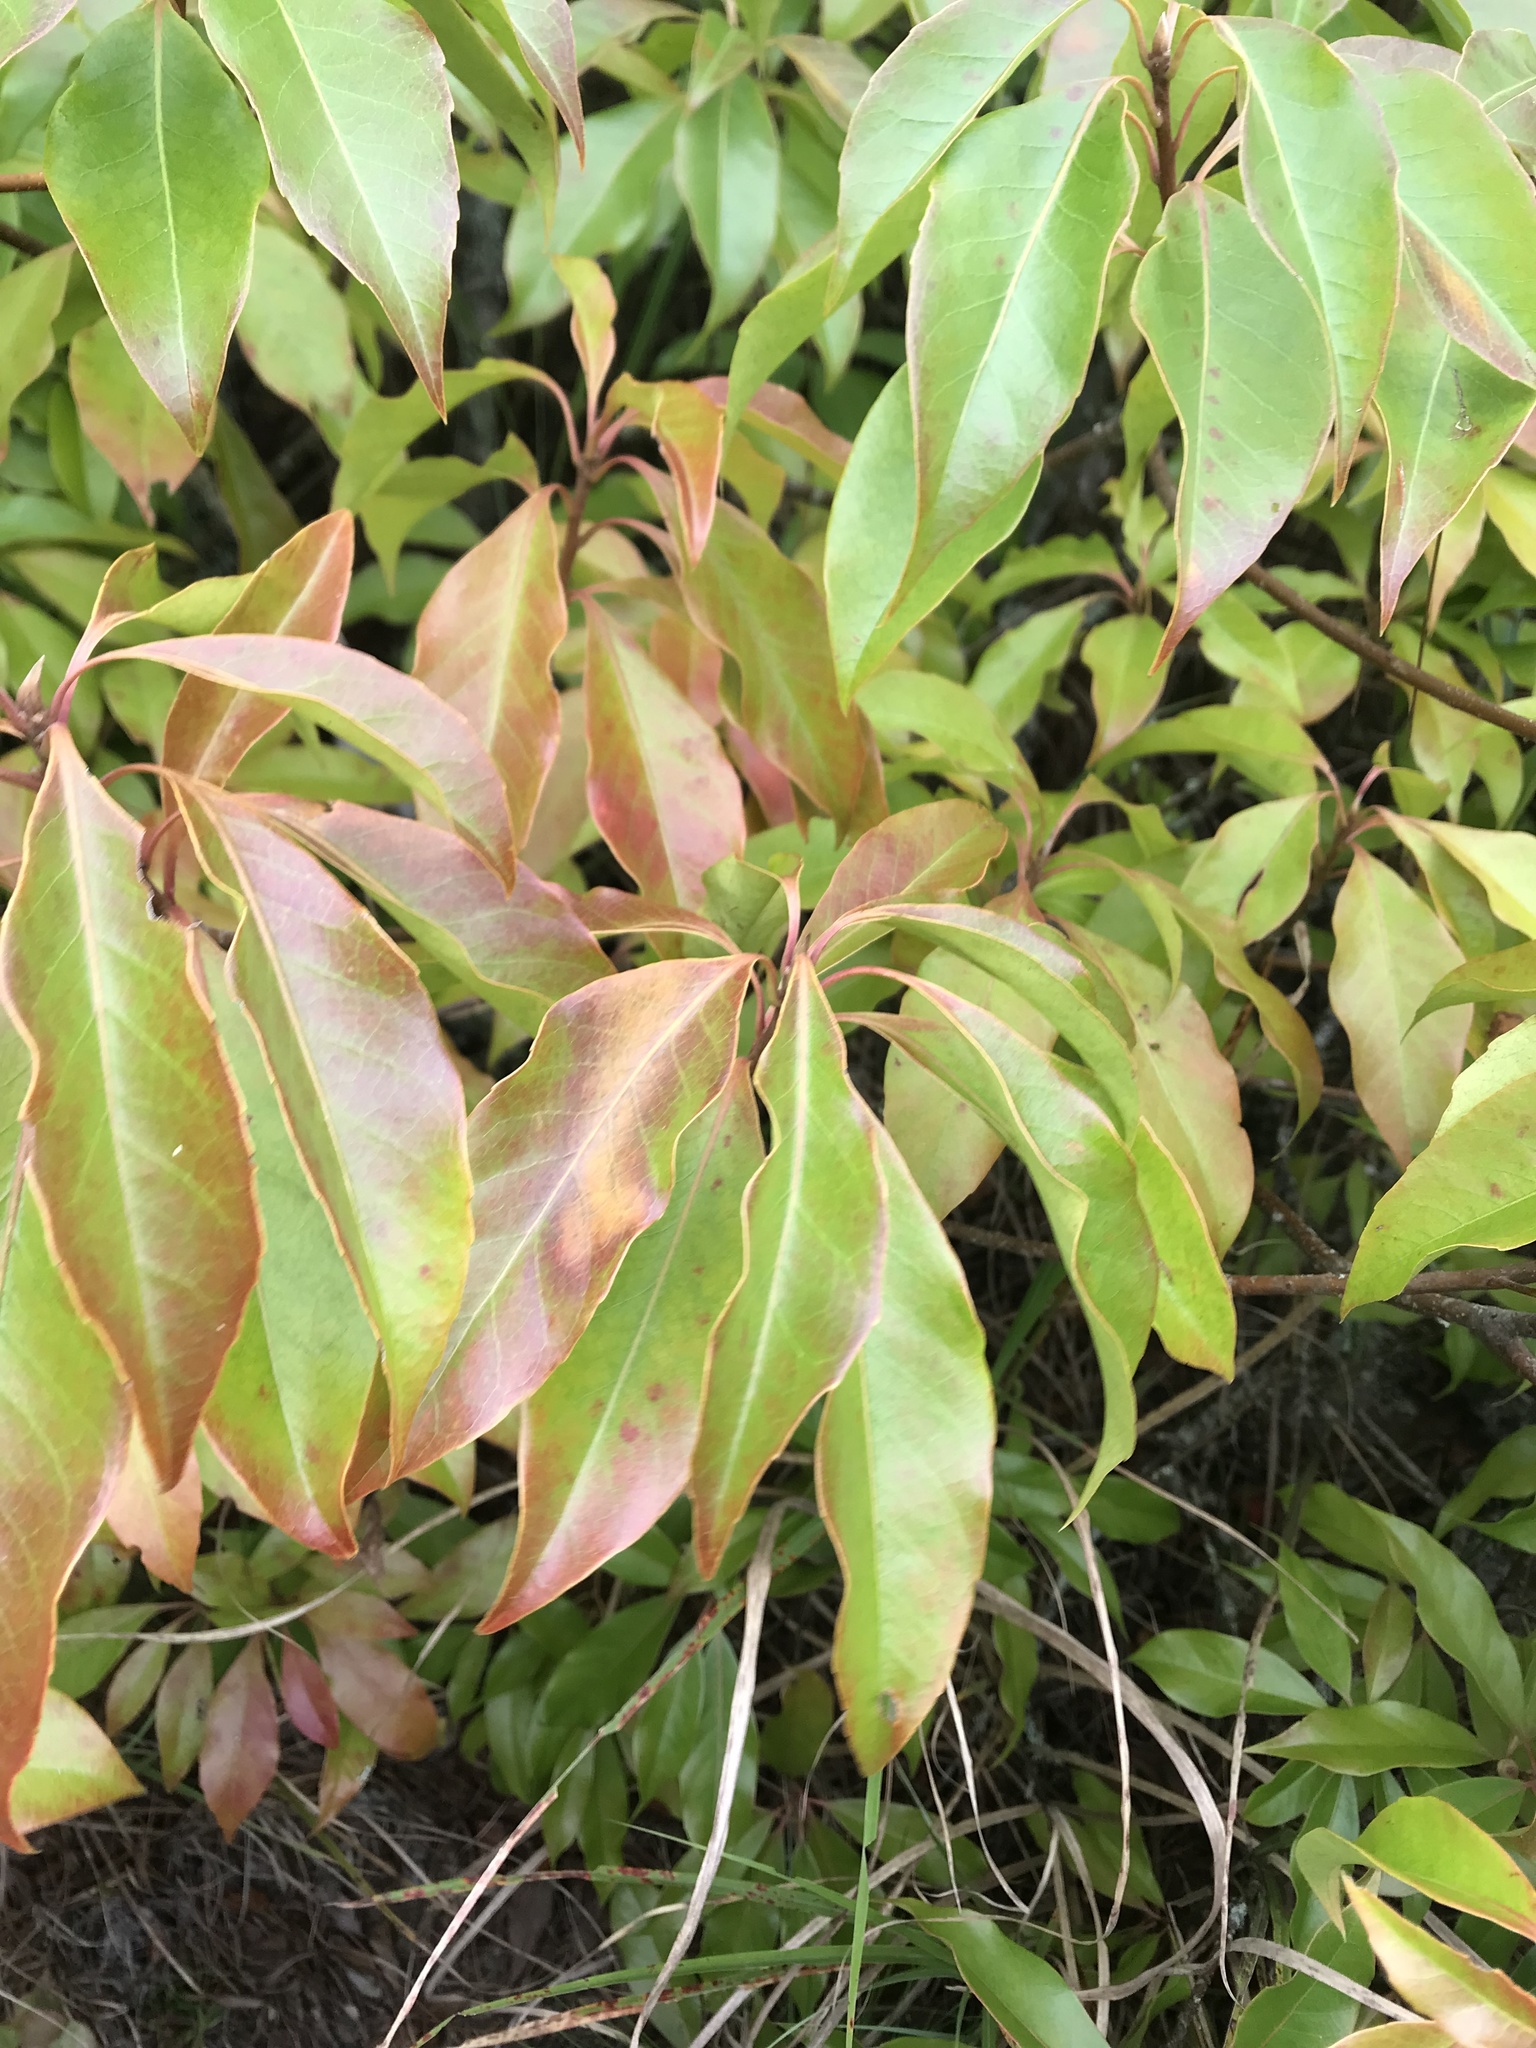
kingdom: Plantae
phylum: Tracheophyta
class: Magnoliopsida
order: Ericales
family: Theaceae
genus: Schima
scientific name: Schima superba
